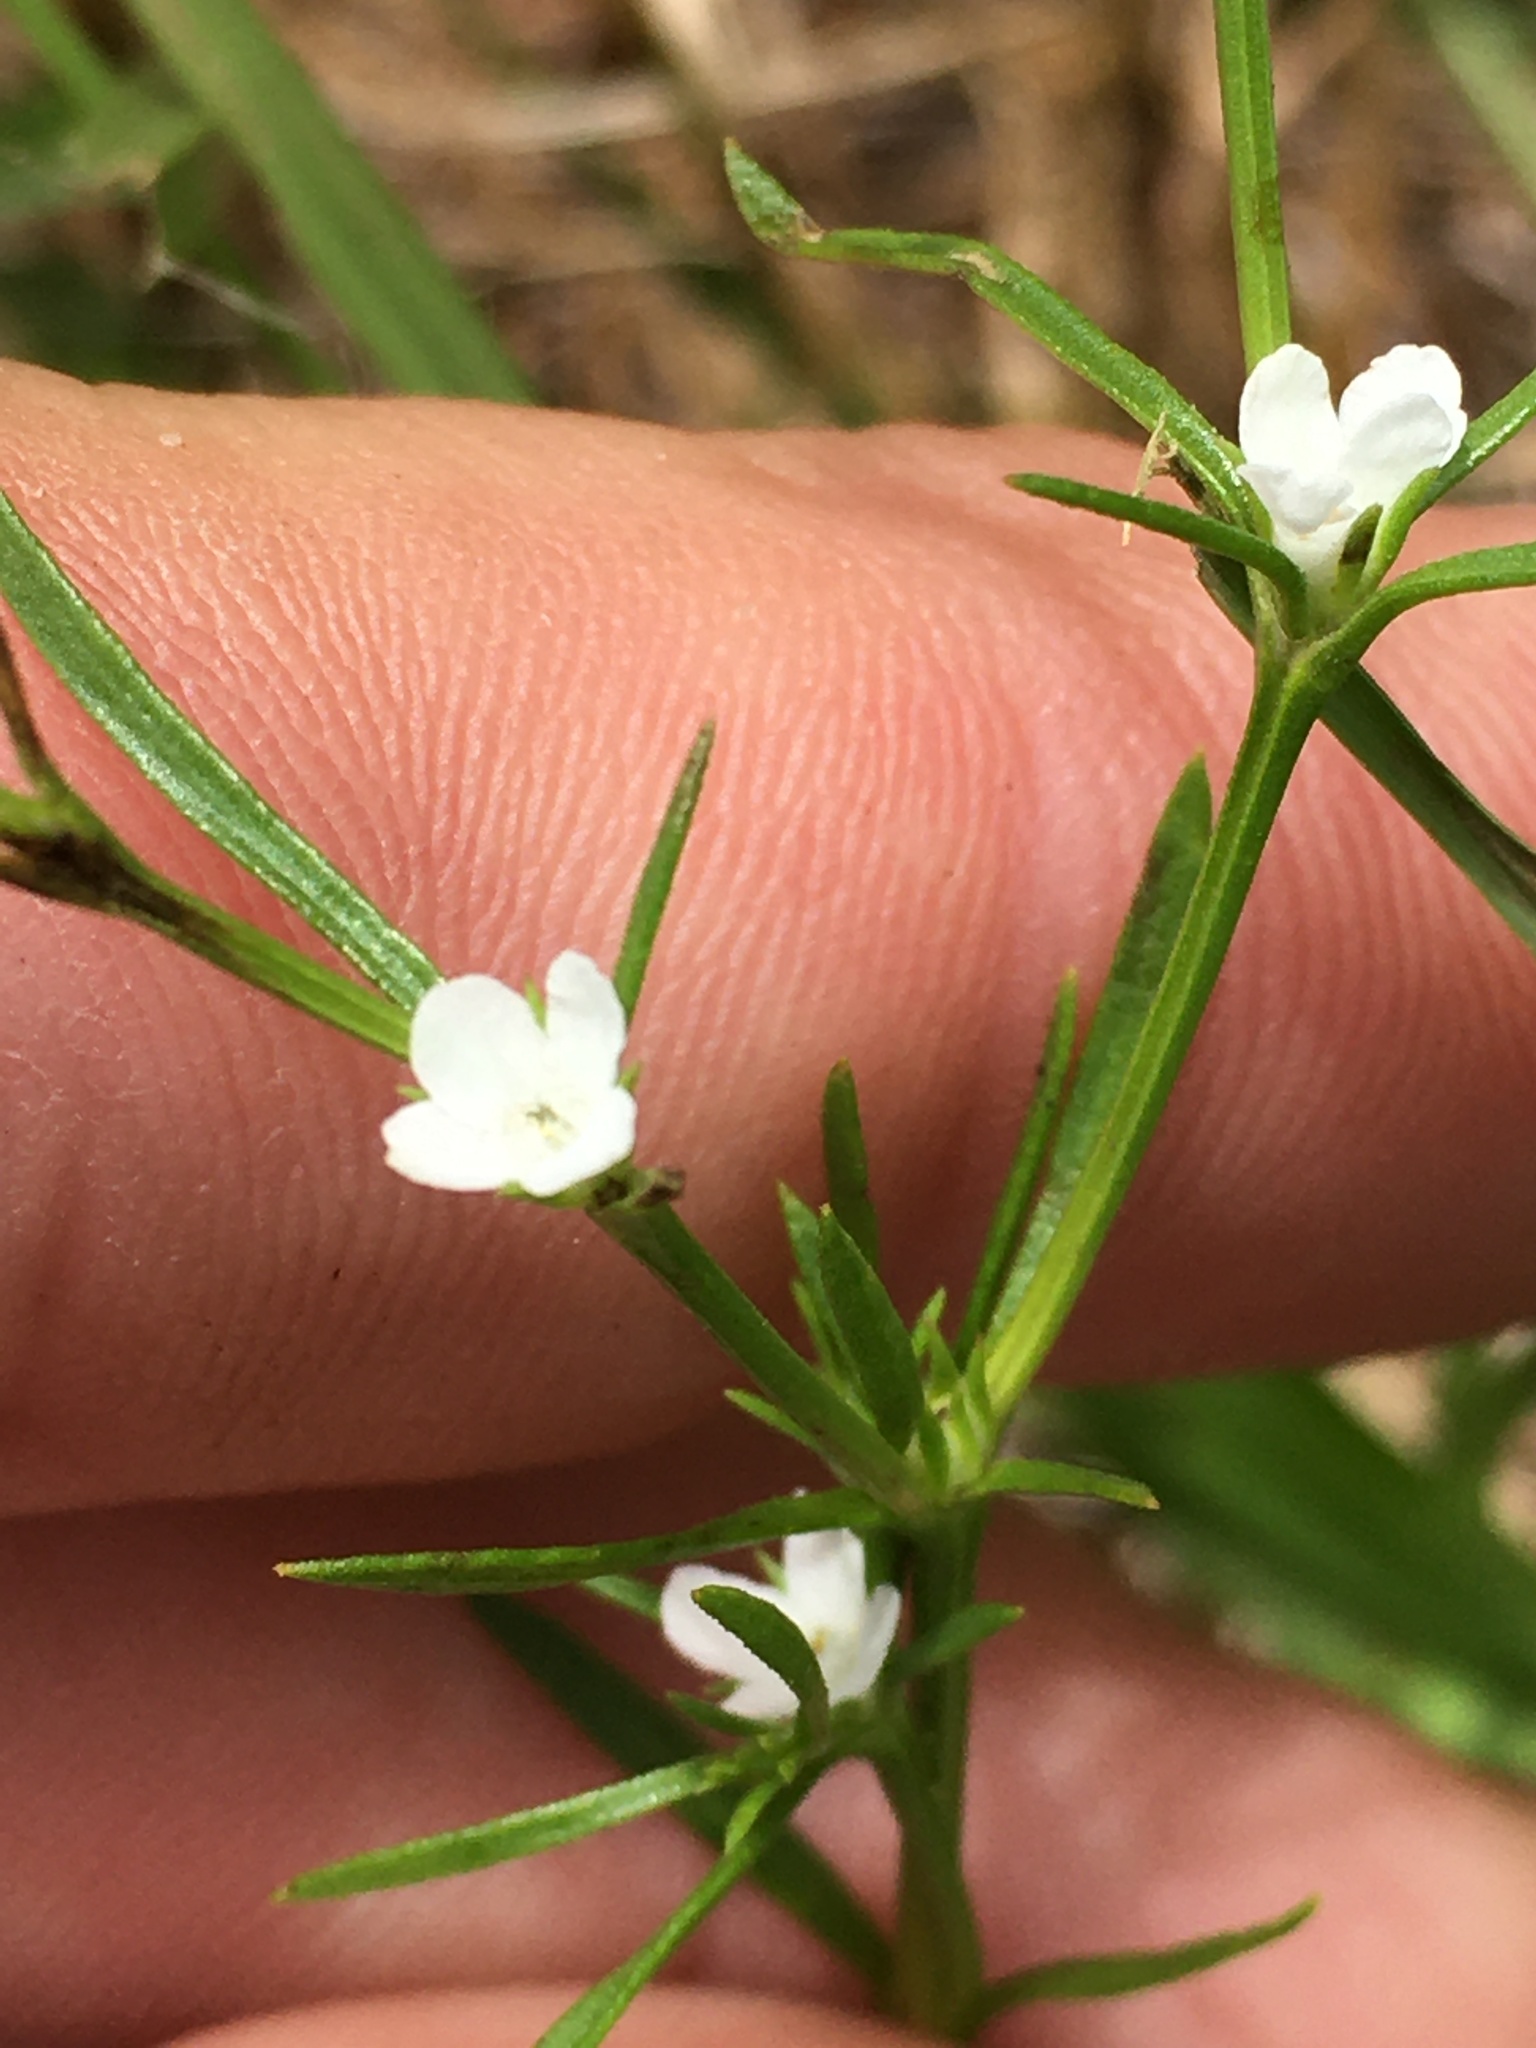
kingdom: Plantae
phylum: Tracheophyta
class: Magnoliopsida
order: Lamiales
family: Tetrachondraceae
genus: Polypremum
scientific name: Polypremum procumbens
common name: Juniper-leaf
